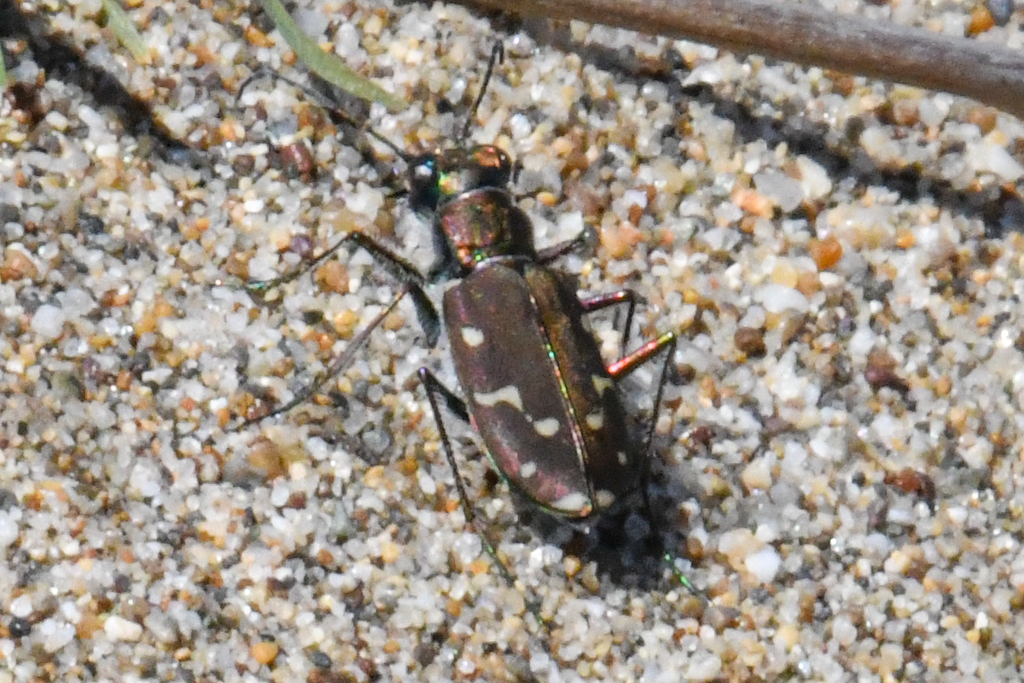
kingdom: Animalia
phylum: Arthropoda
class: Insecta
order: Coleoptera
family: Carabidae
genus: Cicindela
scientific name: Cicindela oregona
